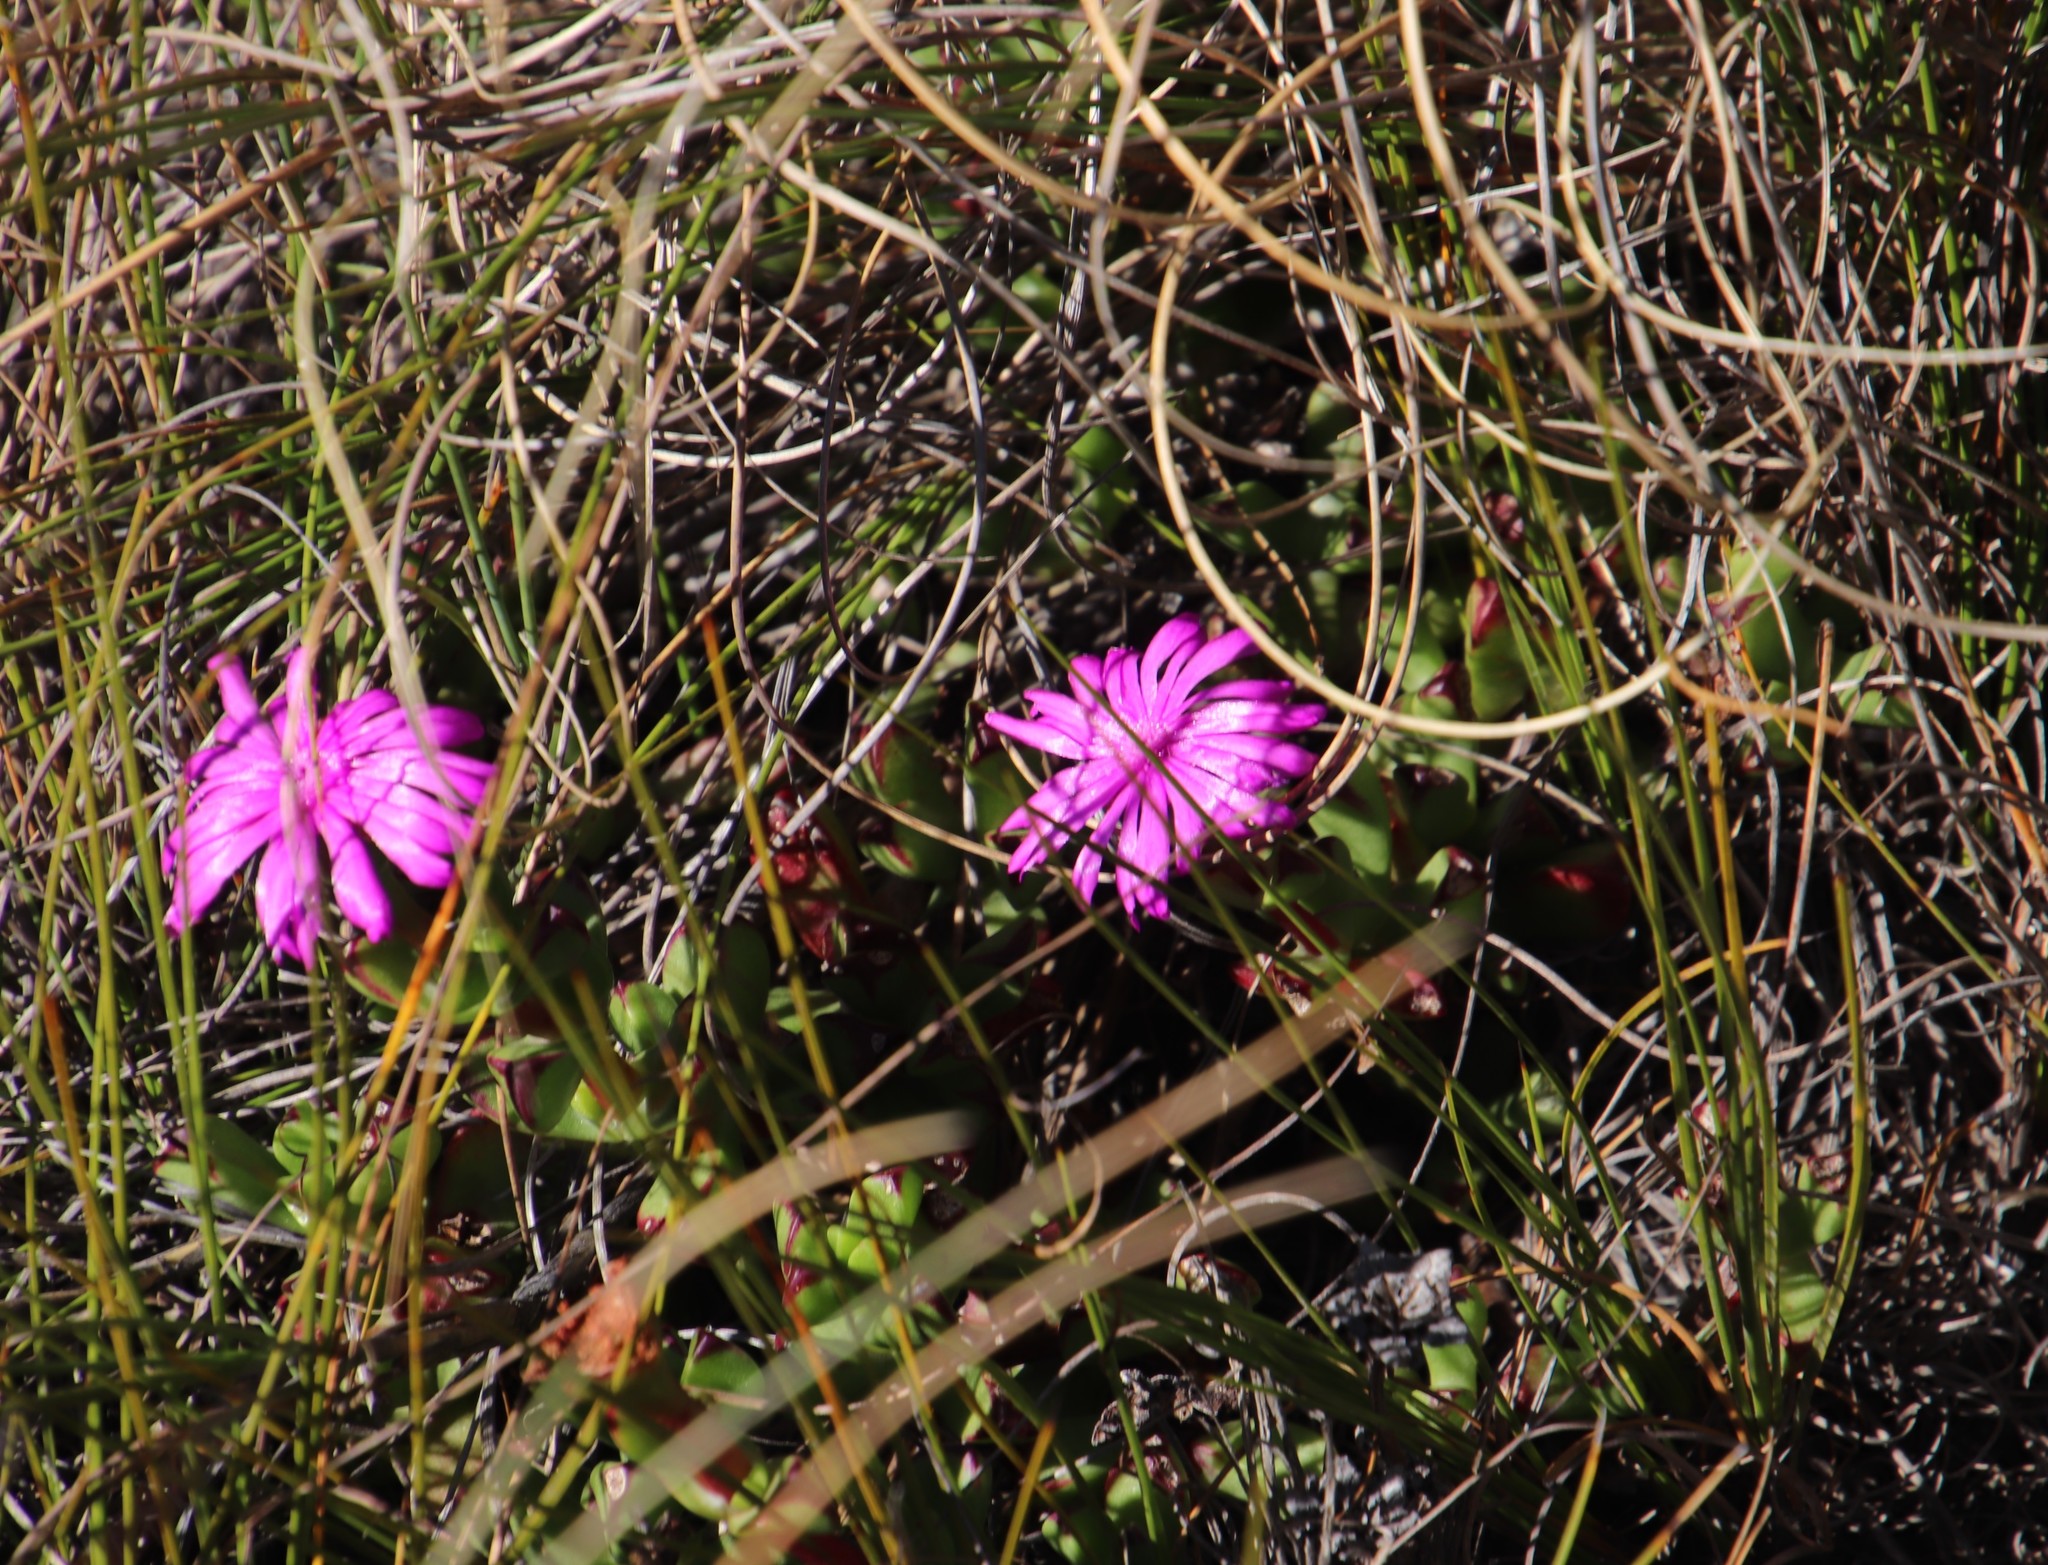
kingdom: Plantae
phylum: Tracheophyta
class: Magnoliopsida
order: Caryophyllales
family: Aizoaceae
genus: Erepsia
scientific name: Erepsia inclaudens
